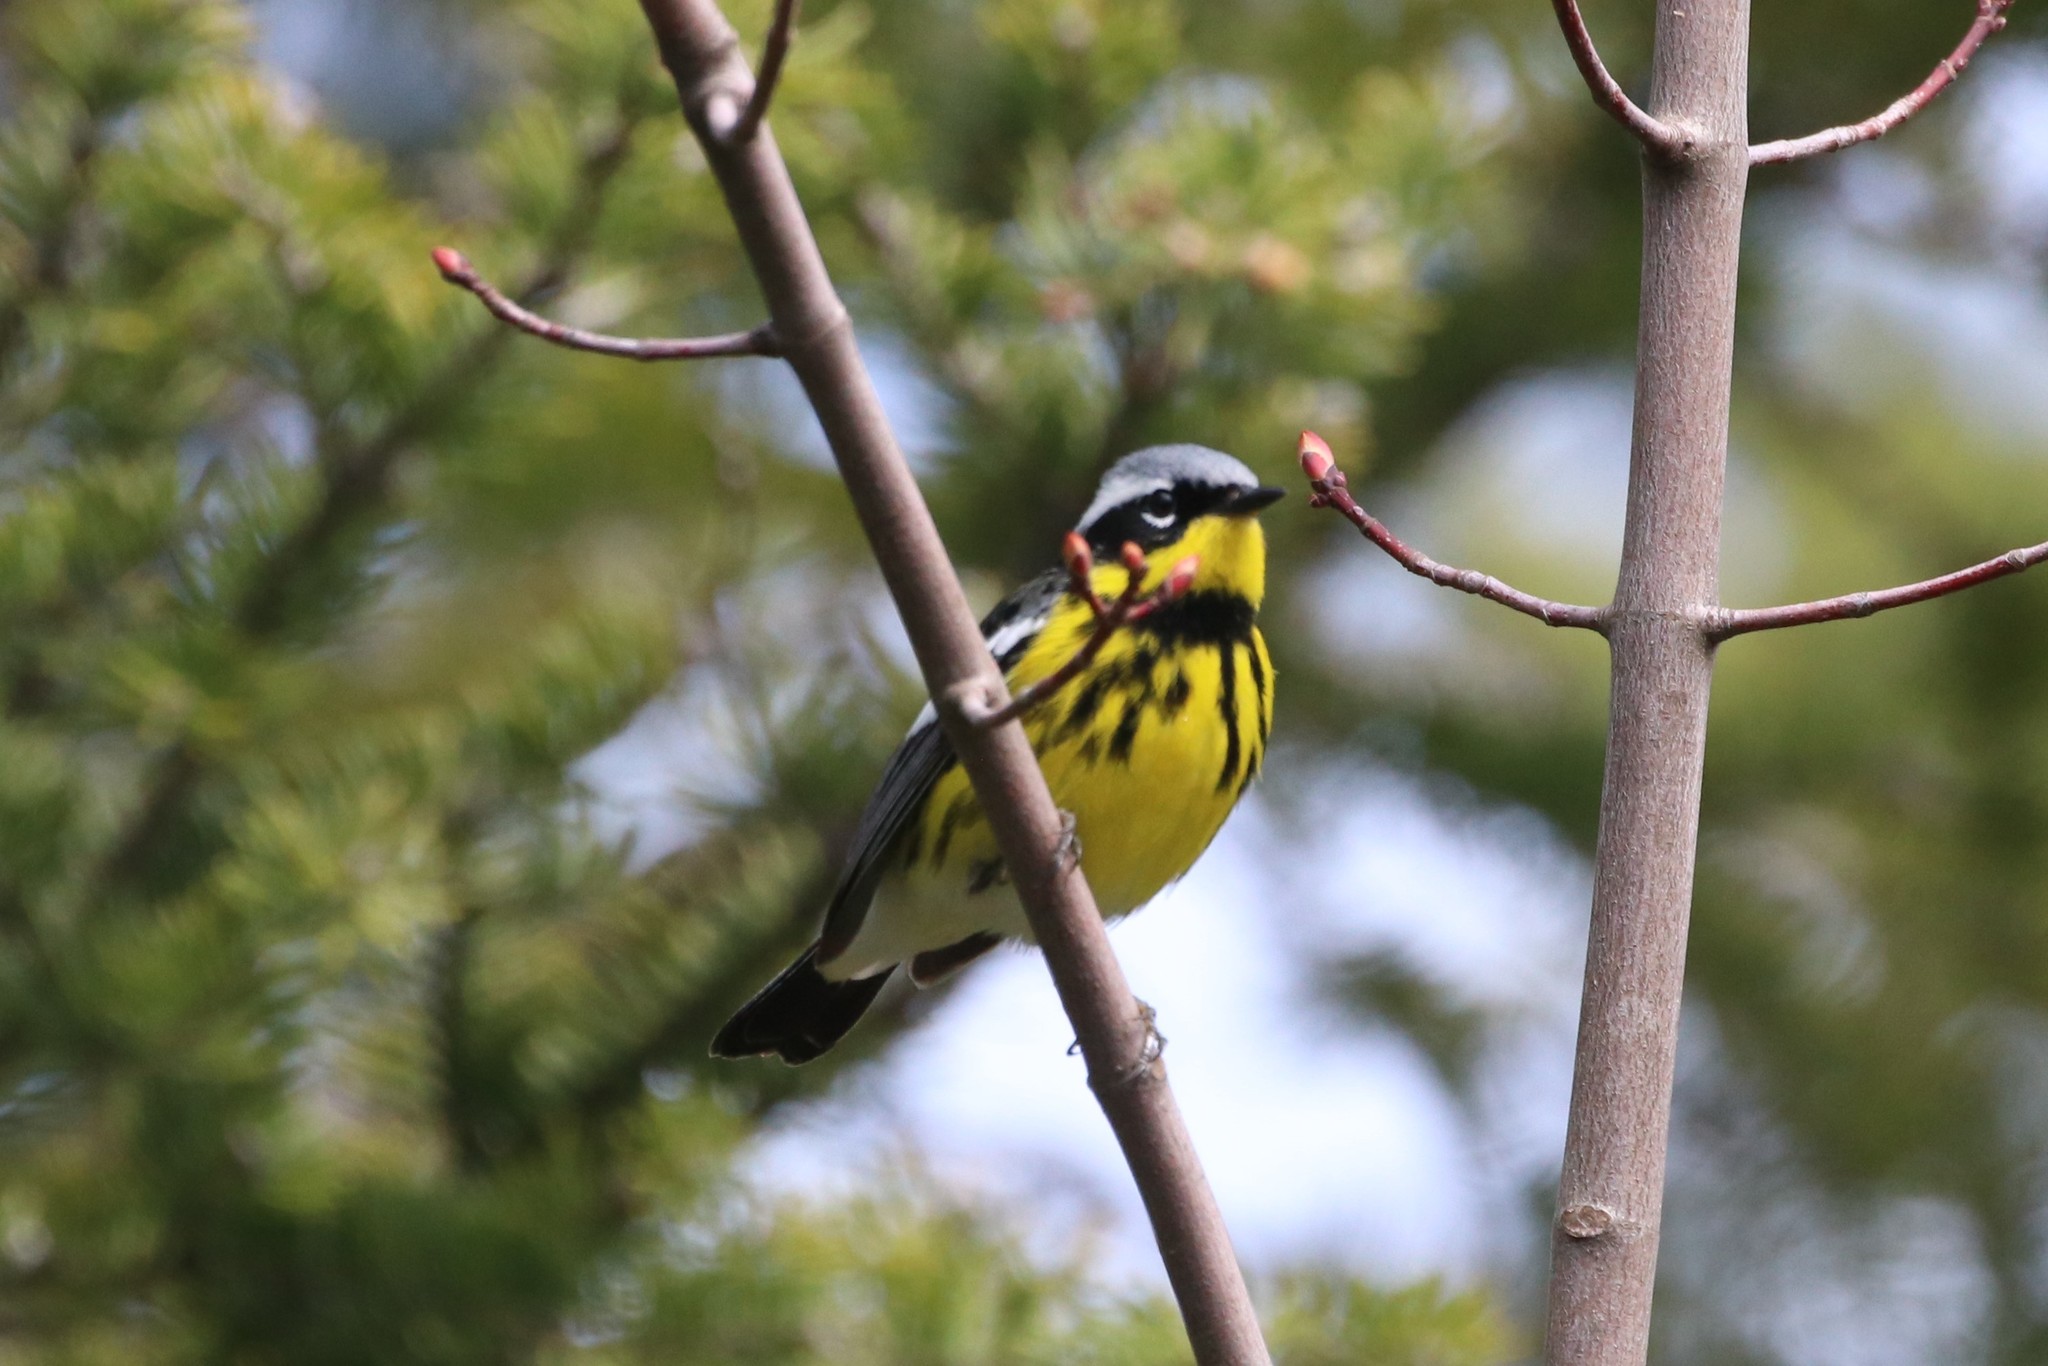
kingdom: Animalia
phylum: Chordata
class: Aves
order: Passeriformes
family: Parulidae
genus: Setophaga
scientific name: Setophaga magnolia
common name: Magnolia warbler
